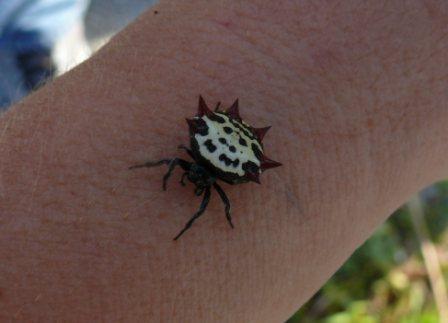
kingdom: Animalia
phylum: Arthropoda
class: Arachnida
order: Araneae
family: Araneidae
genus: Gasteracantha
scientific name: Gasteracantha cancriformis
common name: Orb weavers
